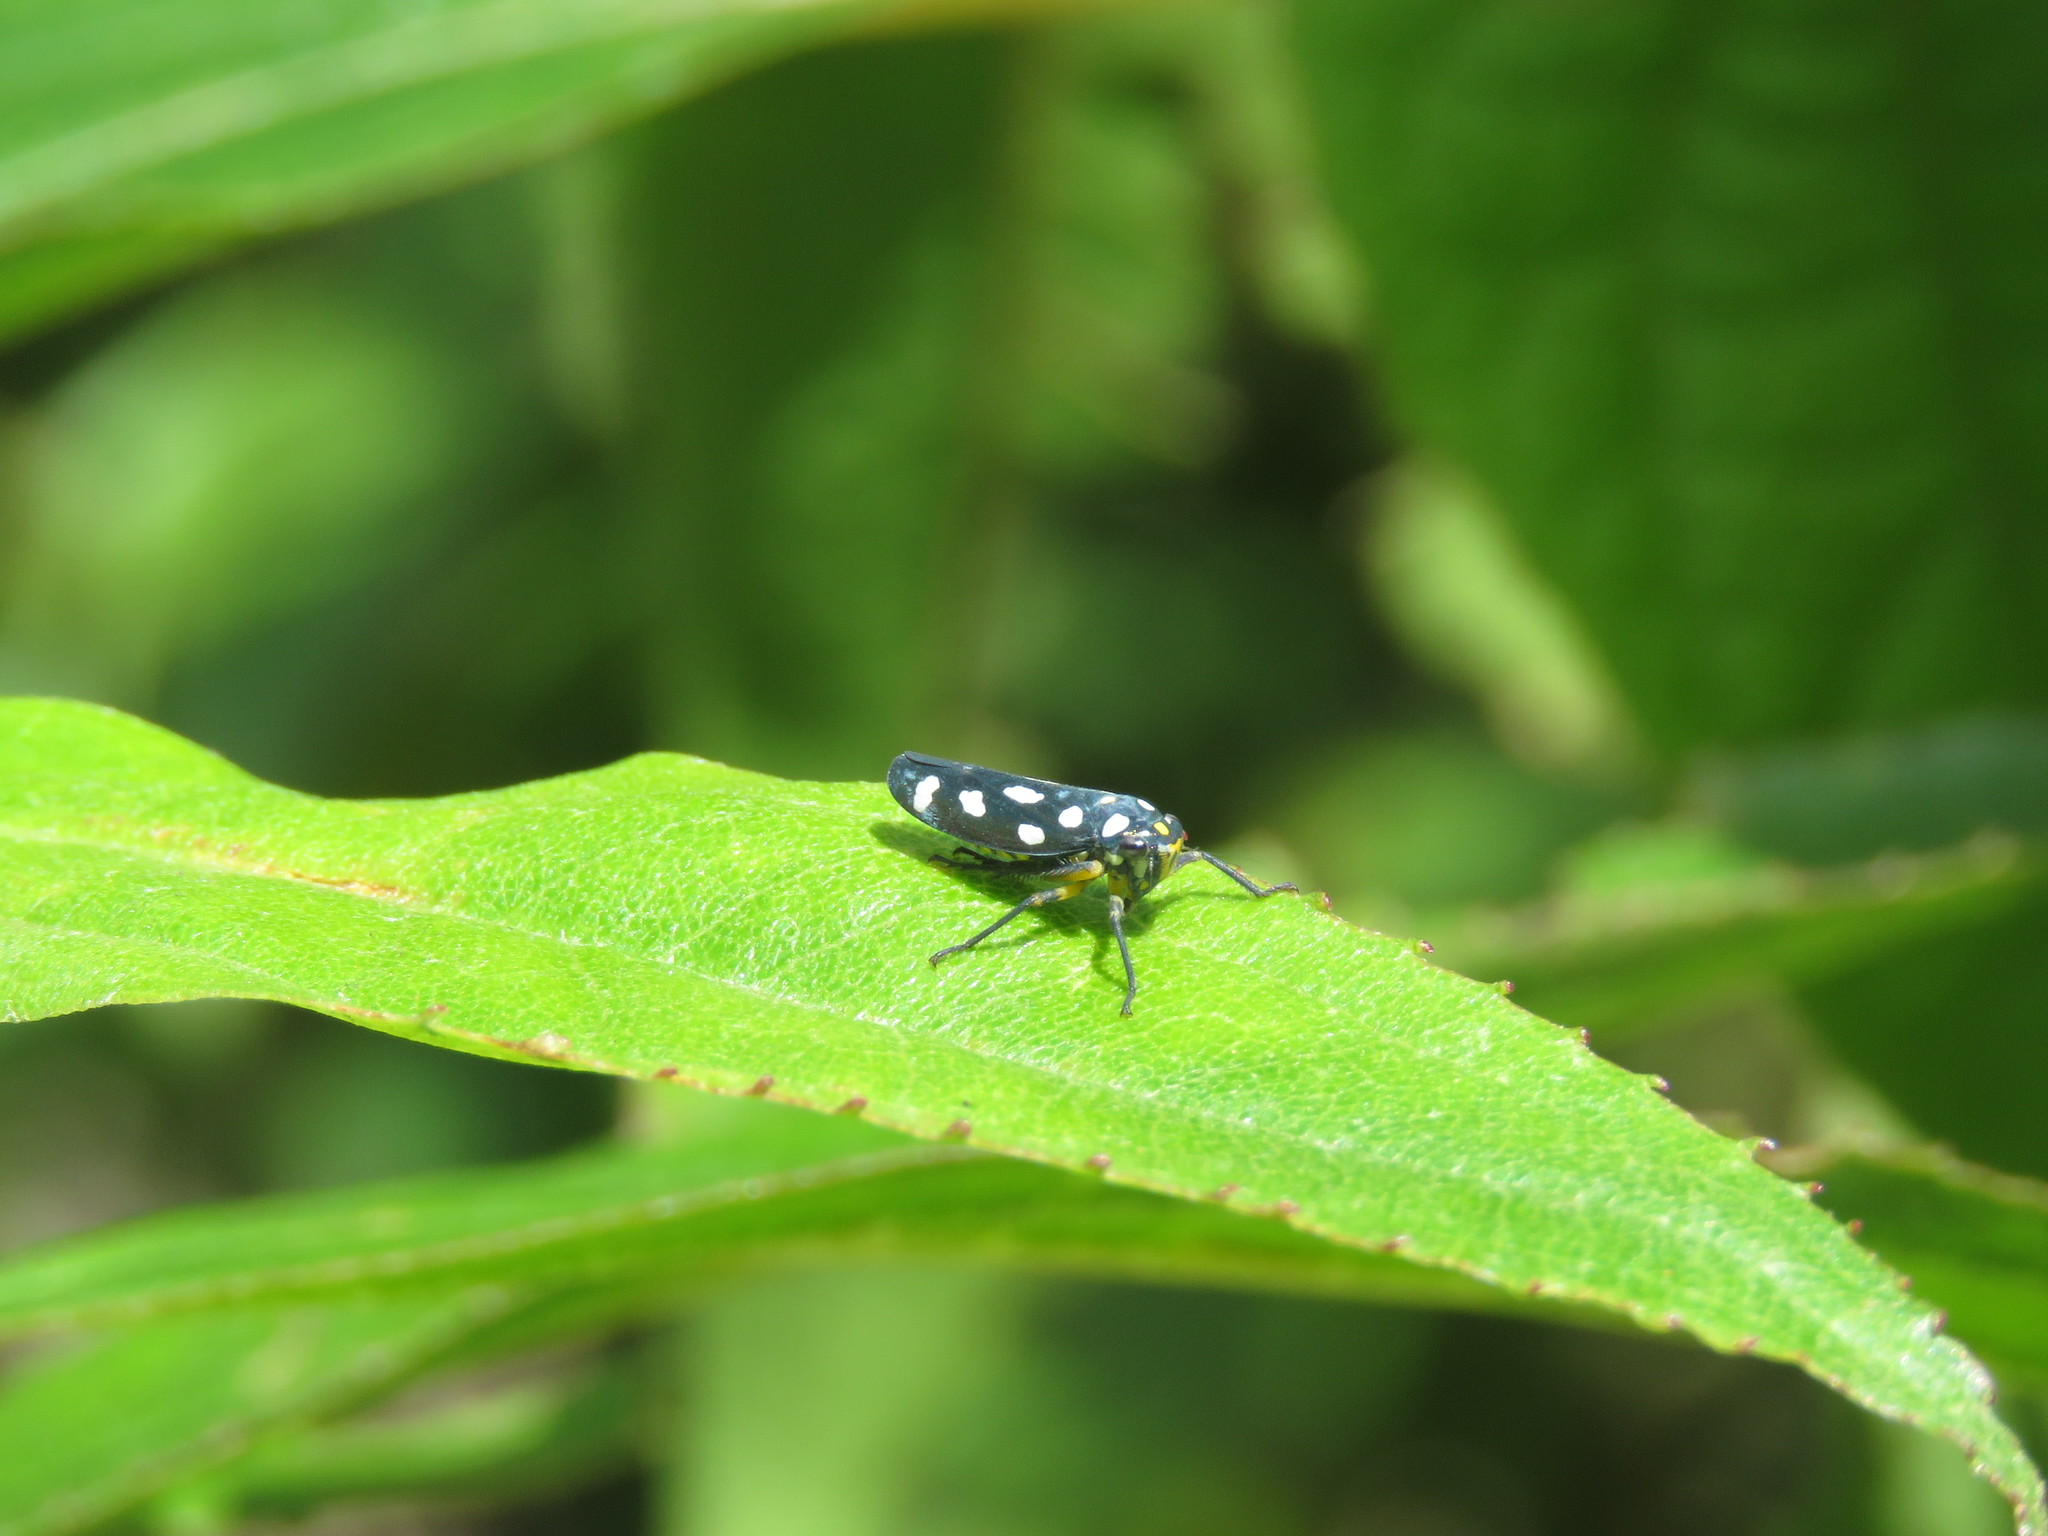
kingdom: Animalia
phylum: Arthropoda
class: Insecta
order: Hemiptera
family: Cicadellidae
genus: Stehlikiana
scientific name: Stehlikiana crassa
